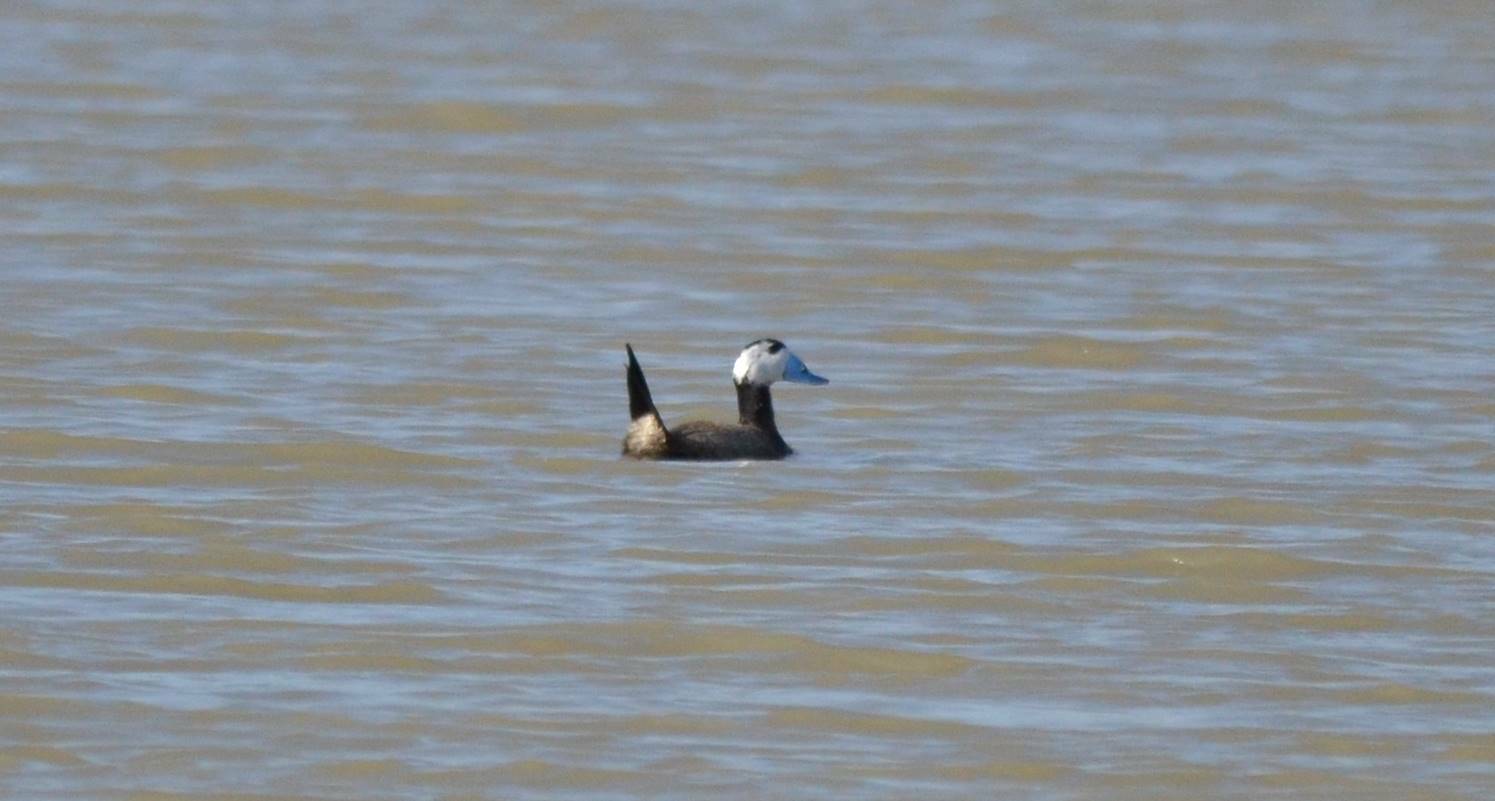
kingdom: Animalia
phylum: Chordata
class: Aves
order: Anseriformes
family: Anatidae
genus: Oxyura
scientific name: Oxyura leucocephala
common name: White-headed duck
